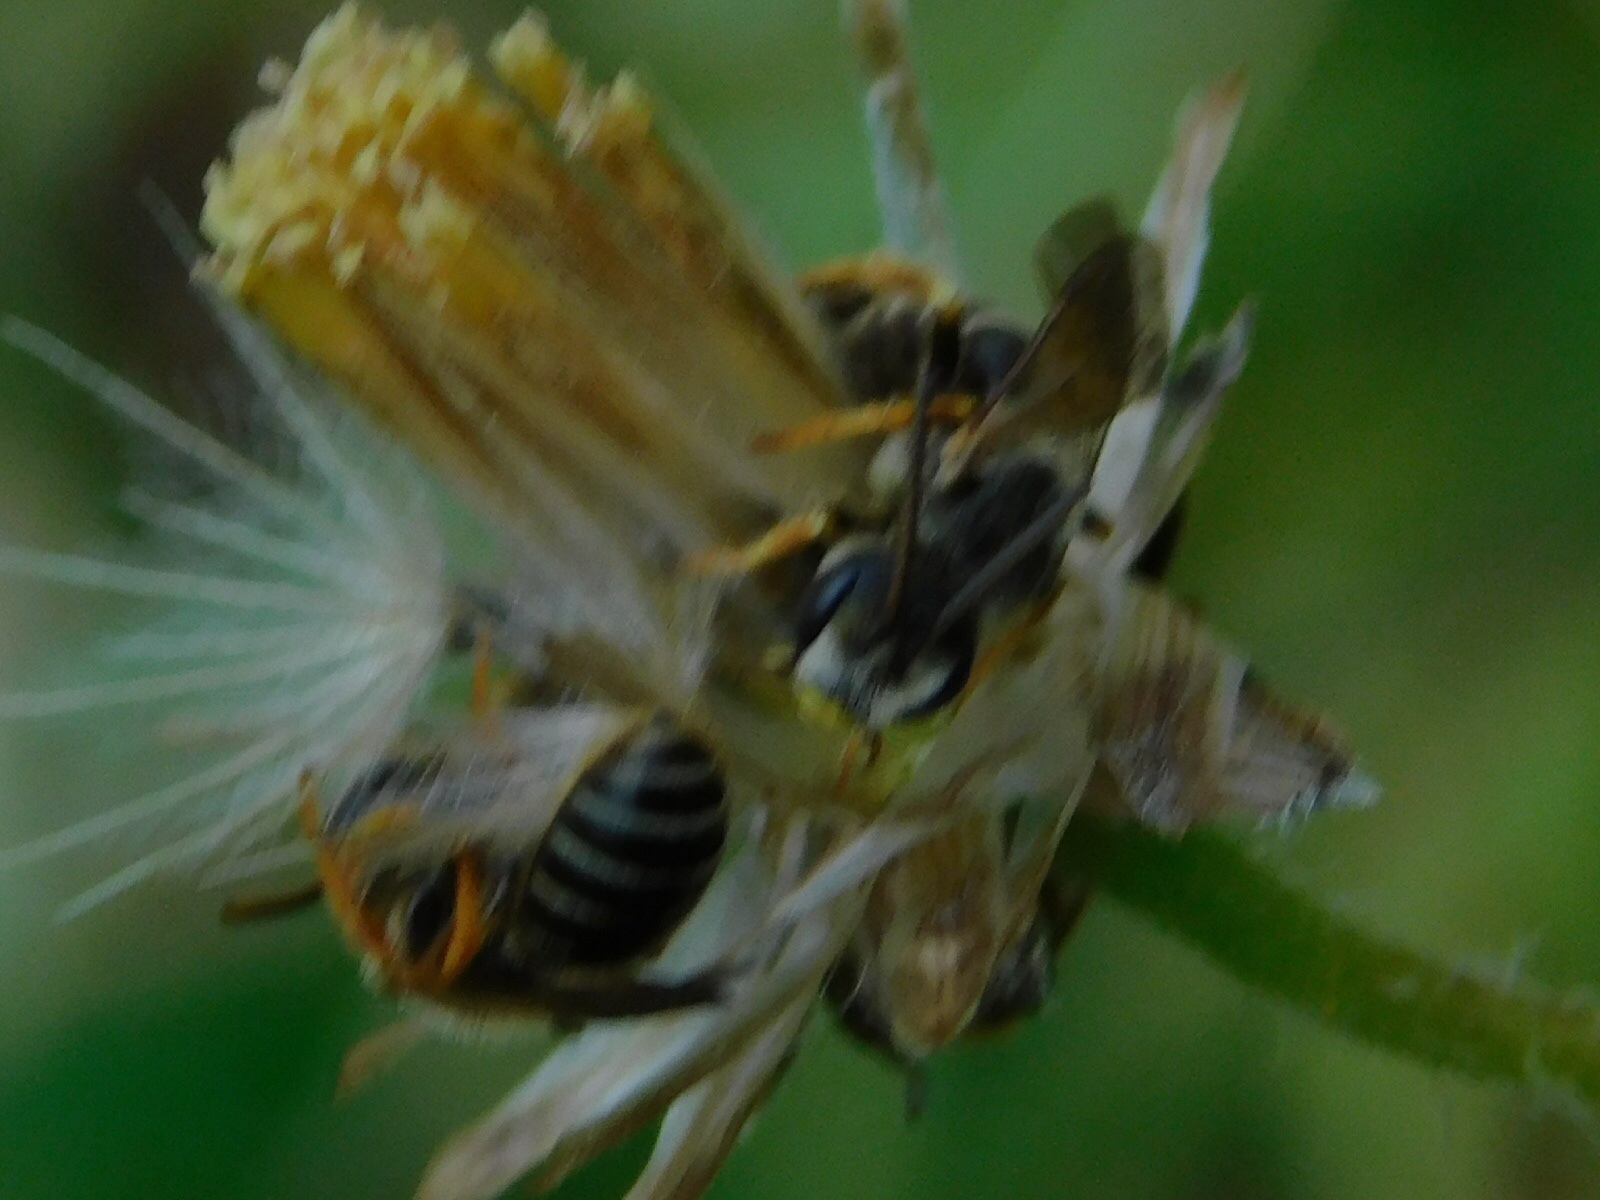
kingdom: Animalia
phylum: Arthropoda
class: Insecta
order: Hymenoptera
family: Halictidae
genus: Halictus
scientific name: Halictus poeyi
